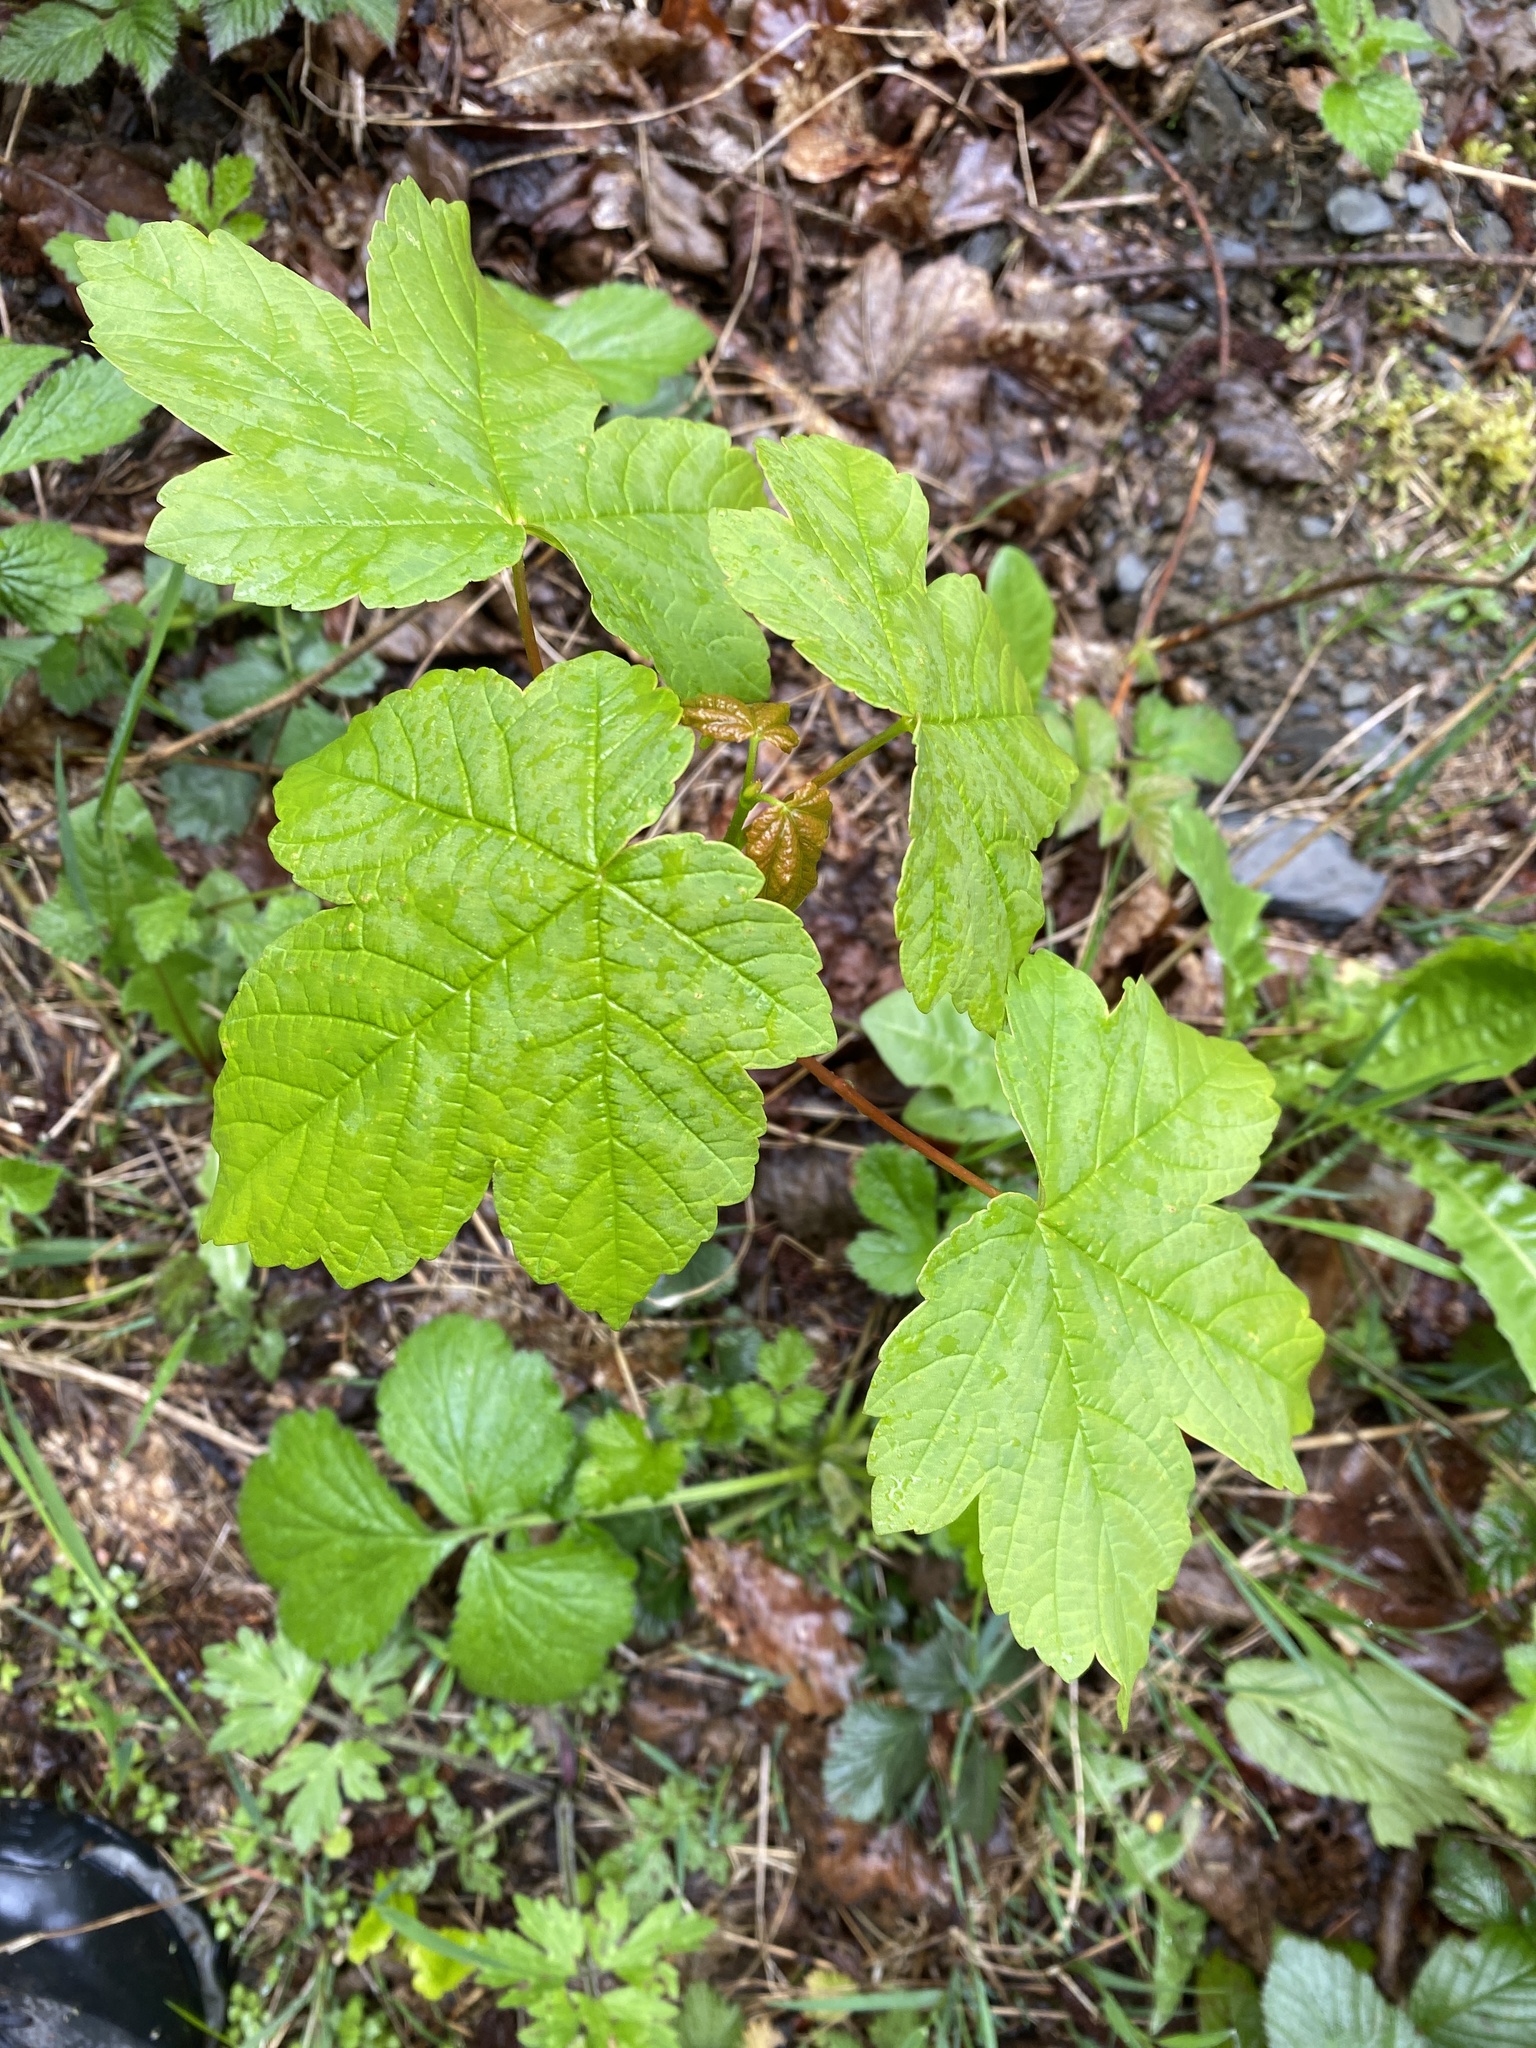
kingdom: Plantae
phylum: Tracheophyta
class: Magnoliopsida
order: Sapindales
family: Sapindaceae
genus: Acer
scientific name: Acer pseudoplatanus
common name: Sycamore
